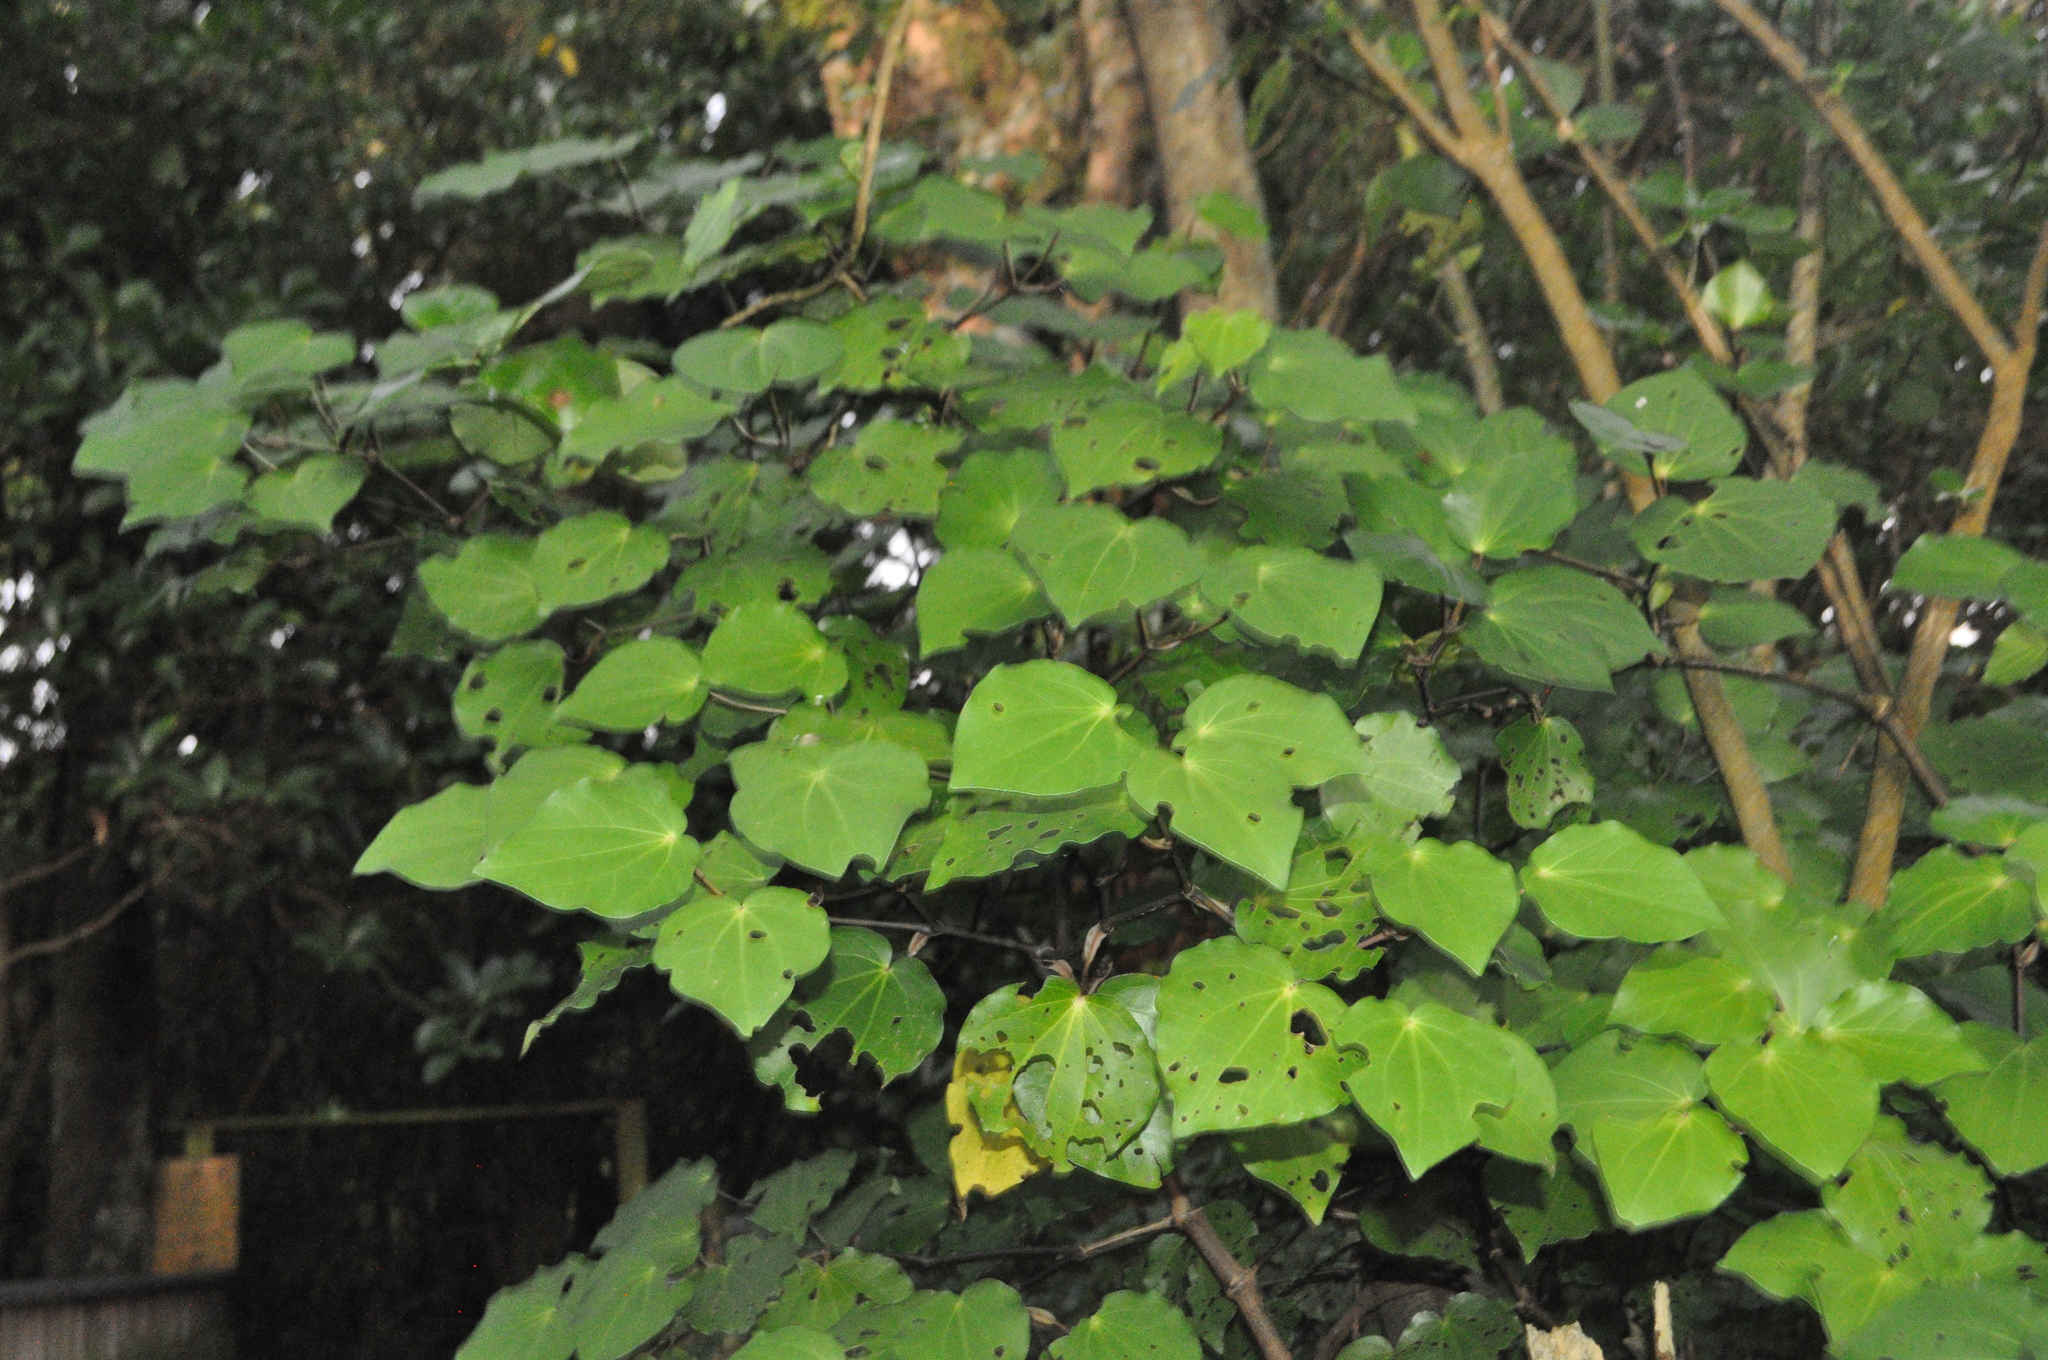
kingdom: Plantae
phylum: Tracheophyta
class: Magnoliopsida
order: Piperales
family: Piperaceae
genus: Macropiper
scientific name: Macropiper excelsum
